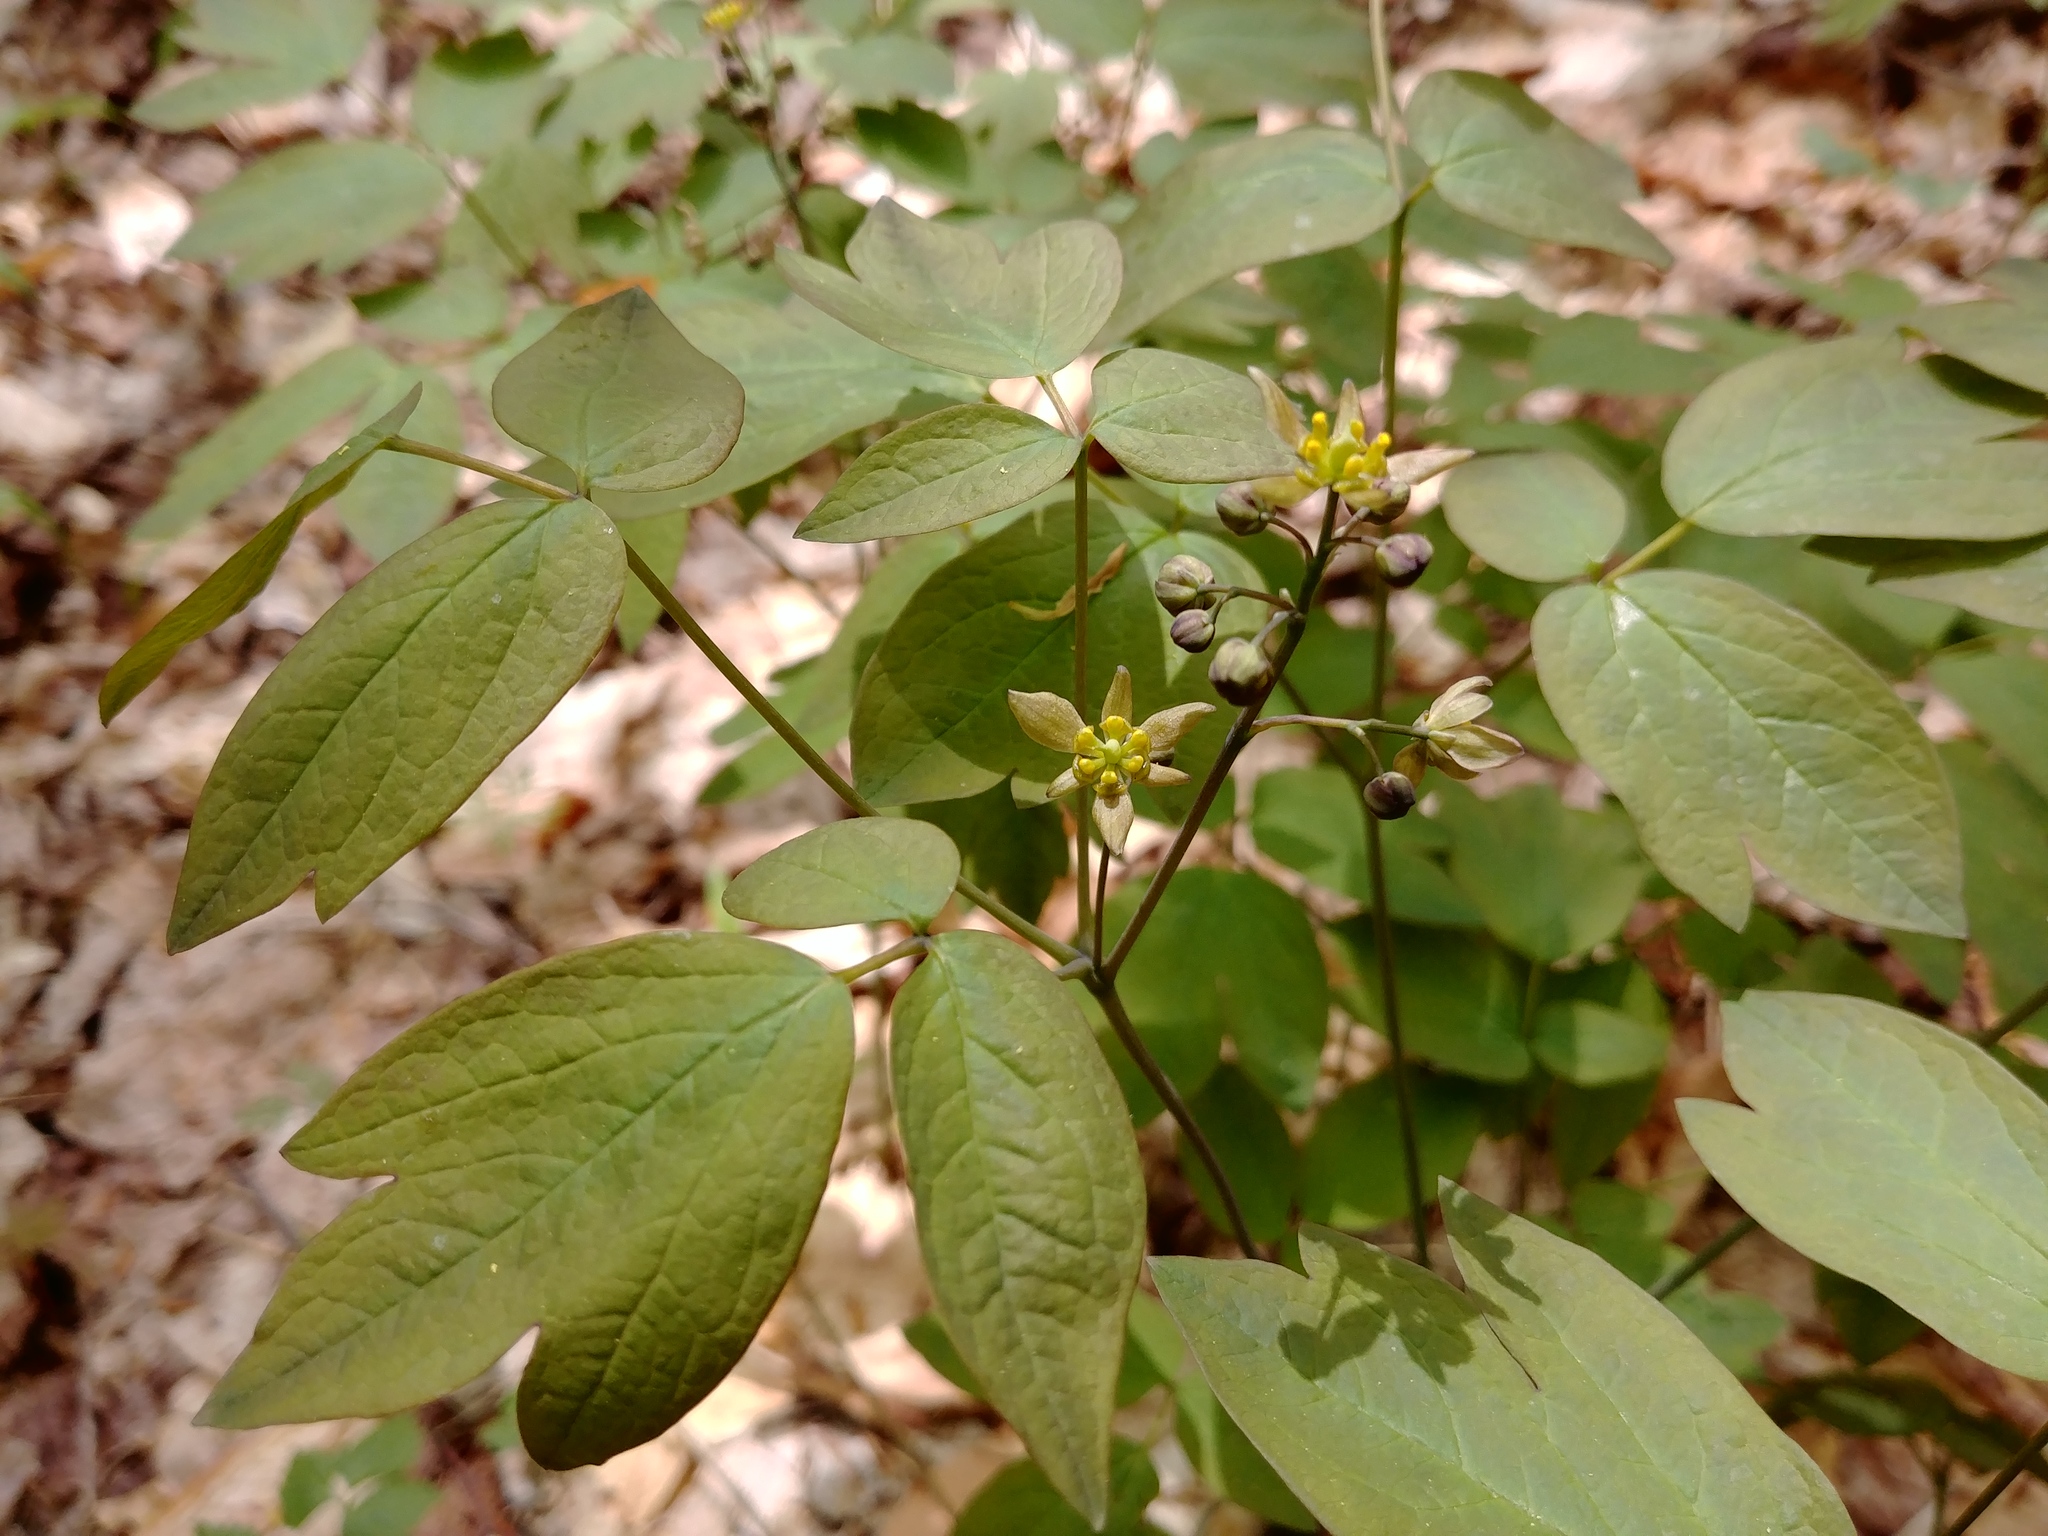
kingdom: Plantae
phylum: Tracheophyta
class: Magnoliopsida
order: Ranunculales
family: Berberidaceae
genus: Caulophyllum
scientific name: Caulophyllum thalictroides
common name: Blue cohosh
